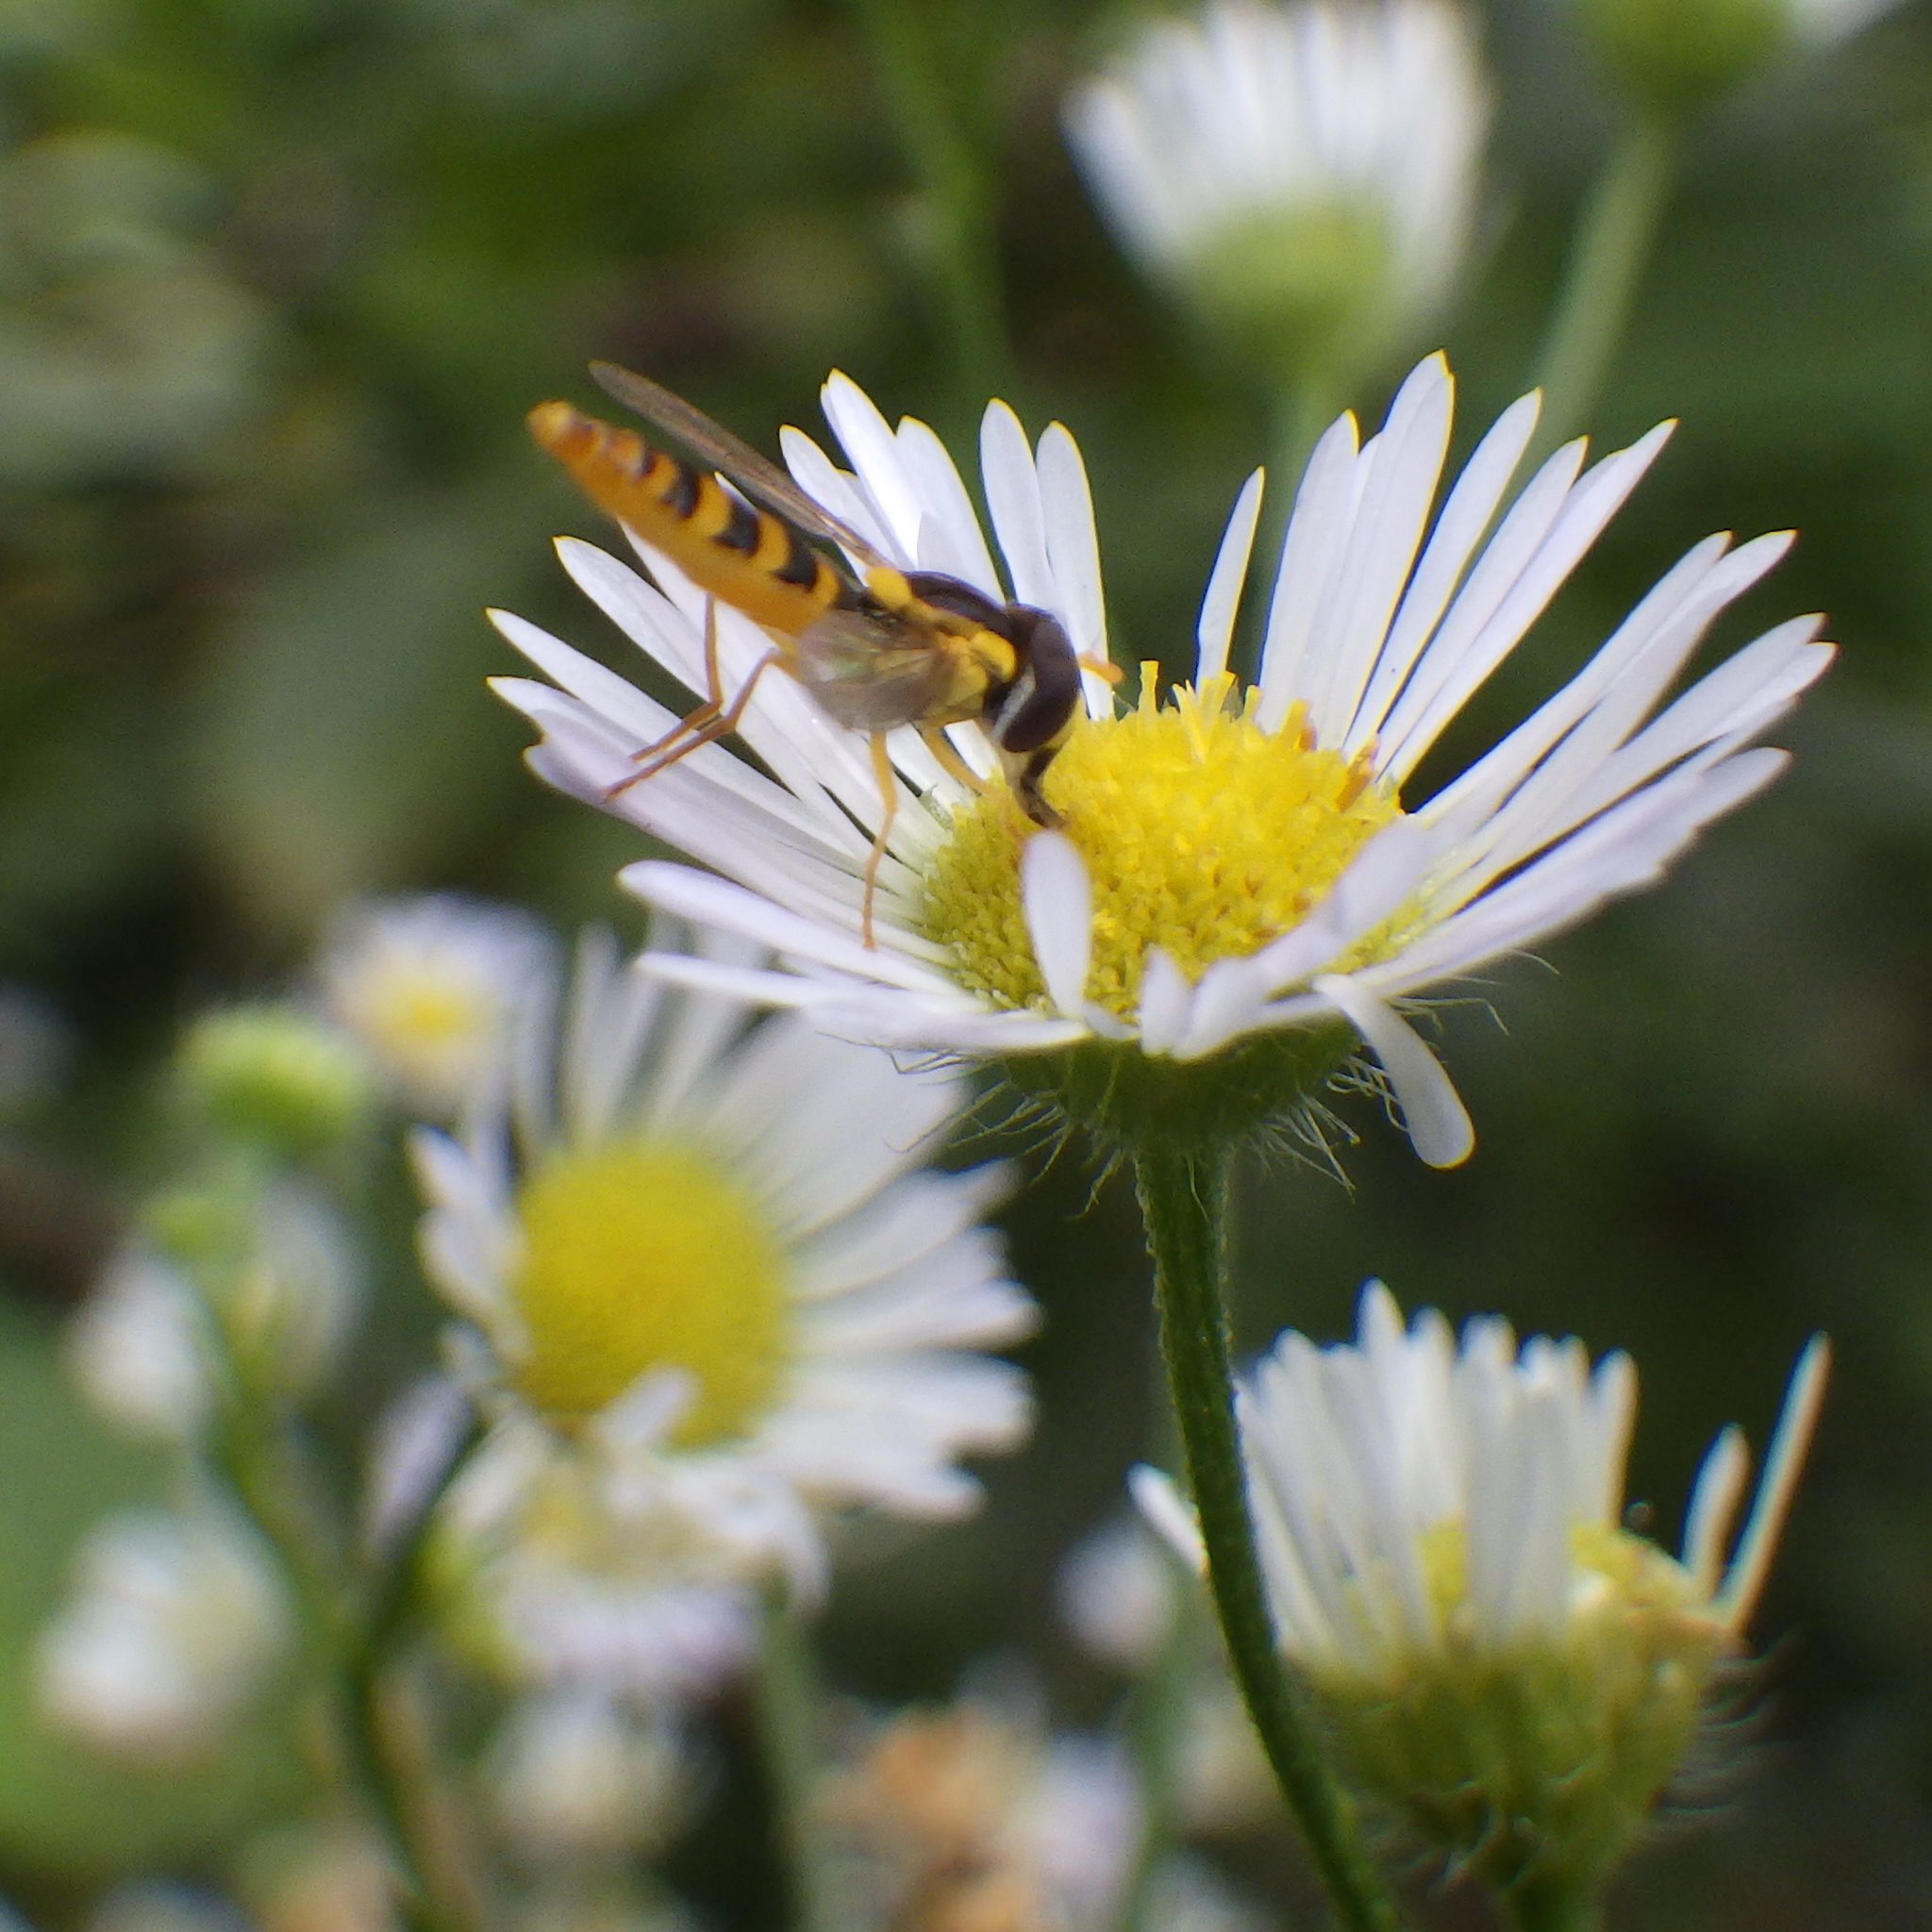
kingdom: Animalia
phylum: Arthropoda
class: Insecta
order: Diptera
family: Syrphidae
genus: Sphaerophoria
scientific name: Sphaerophoria
